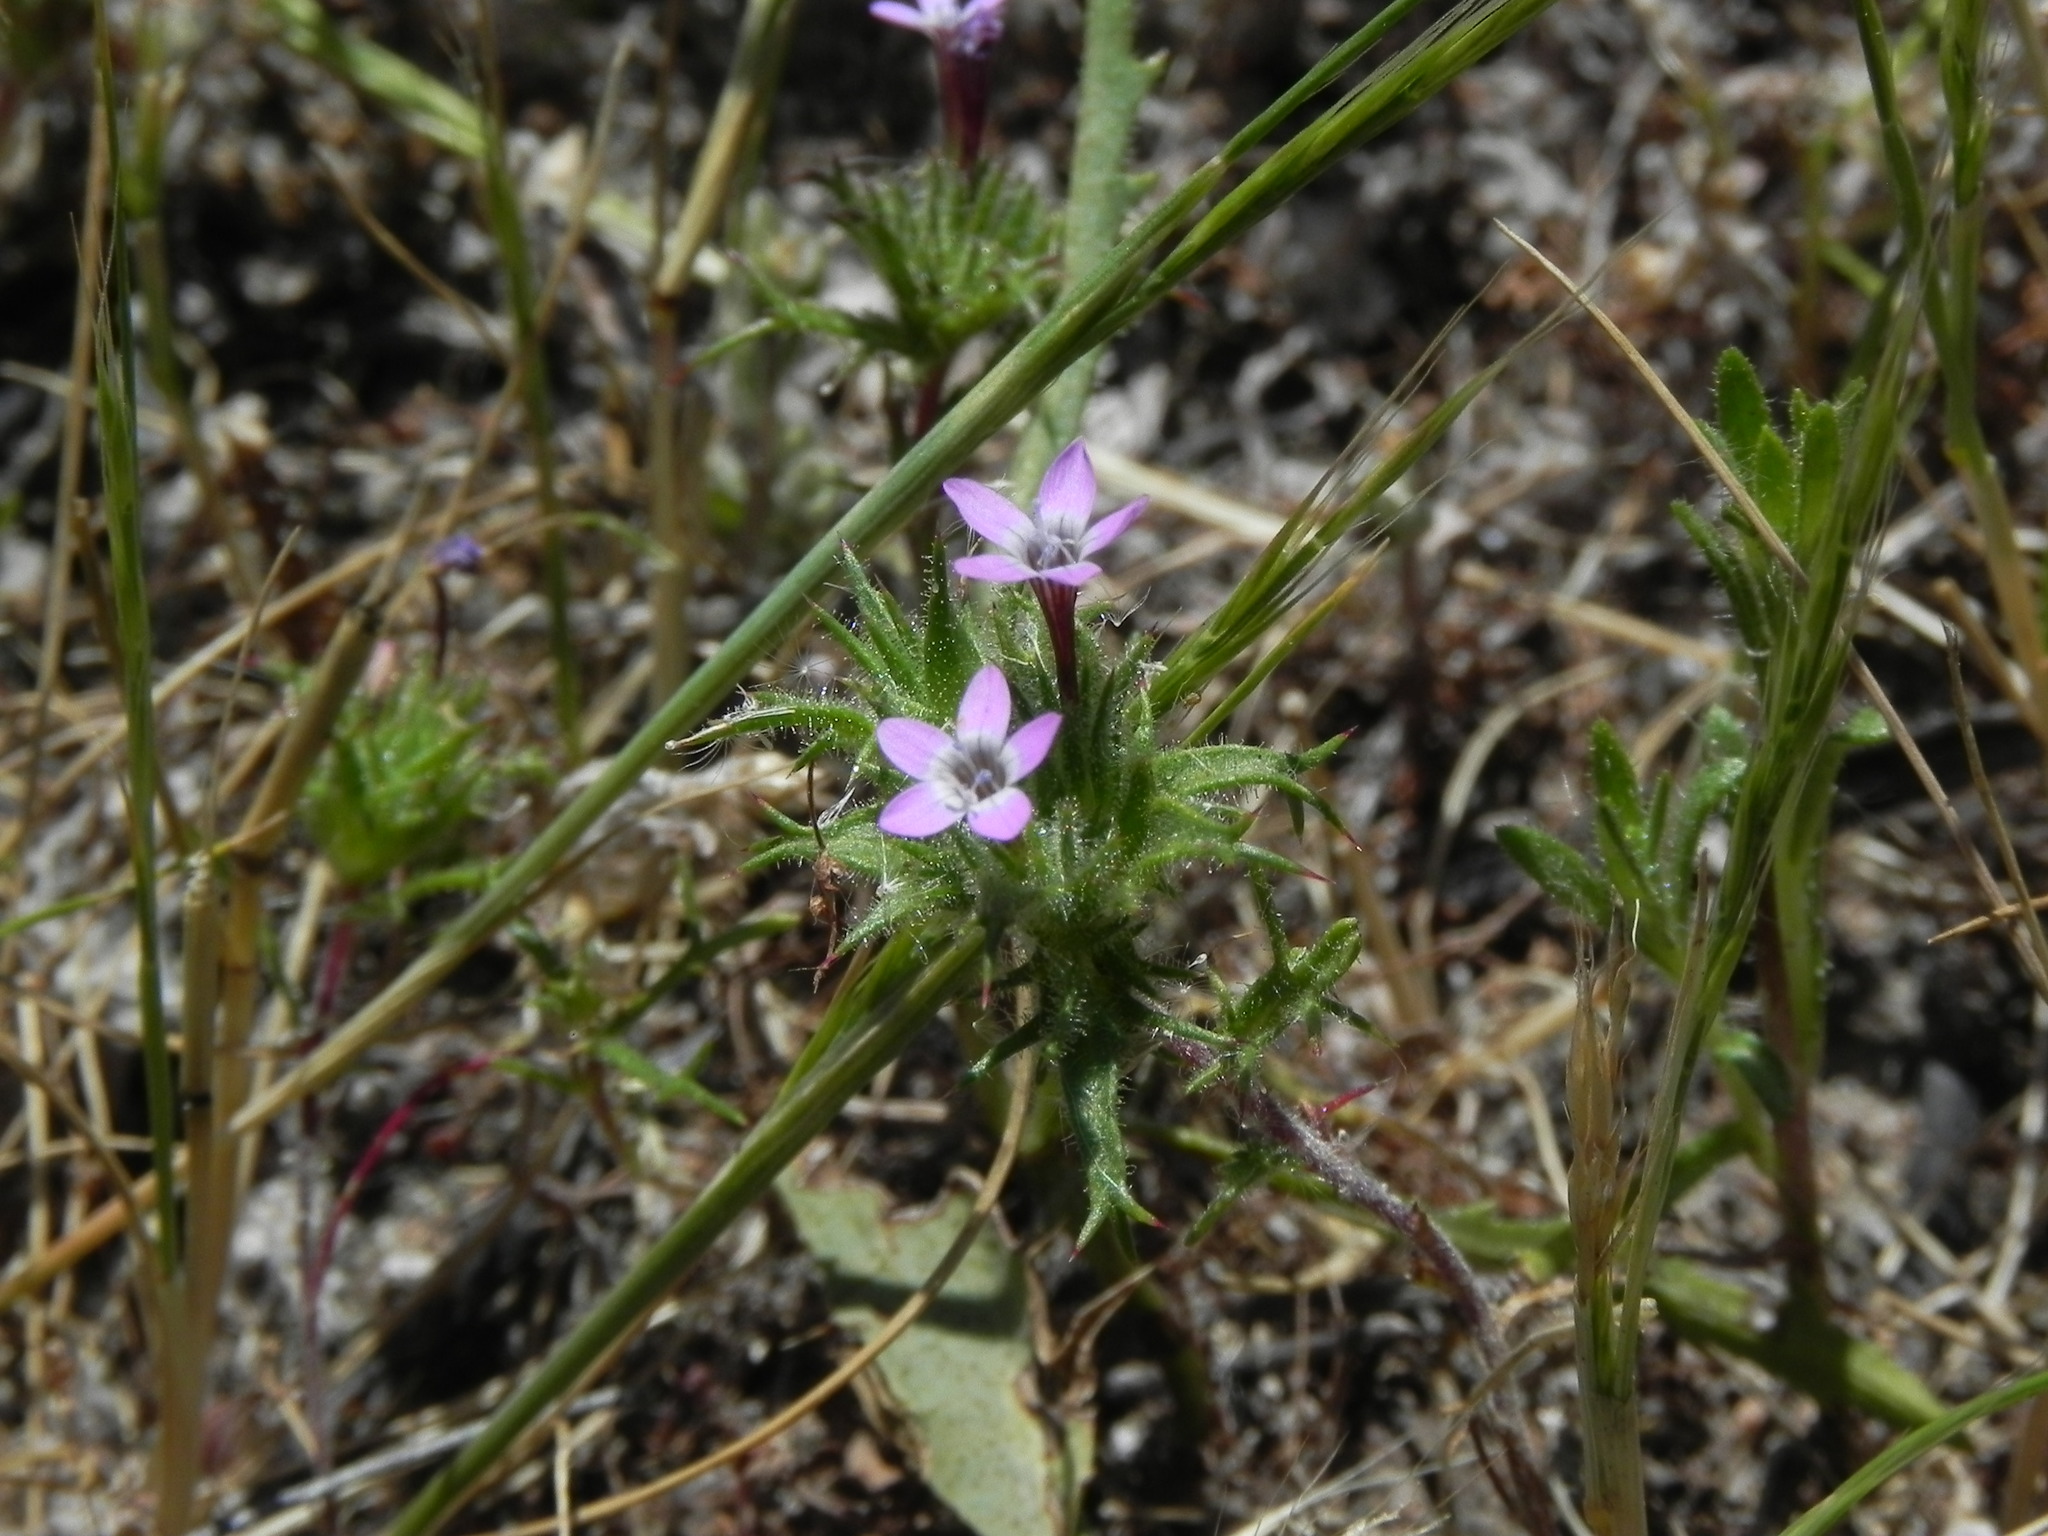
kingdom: Plantae
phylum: Tracheophyta
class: Magnoliopsida
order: Ericales
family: Polemoniaceae
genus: Navarretia
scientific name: Navarretia hamata
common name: Hooked navarretia
